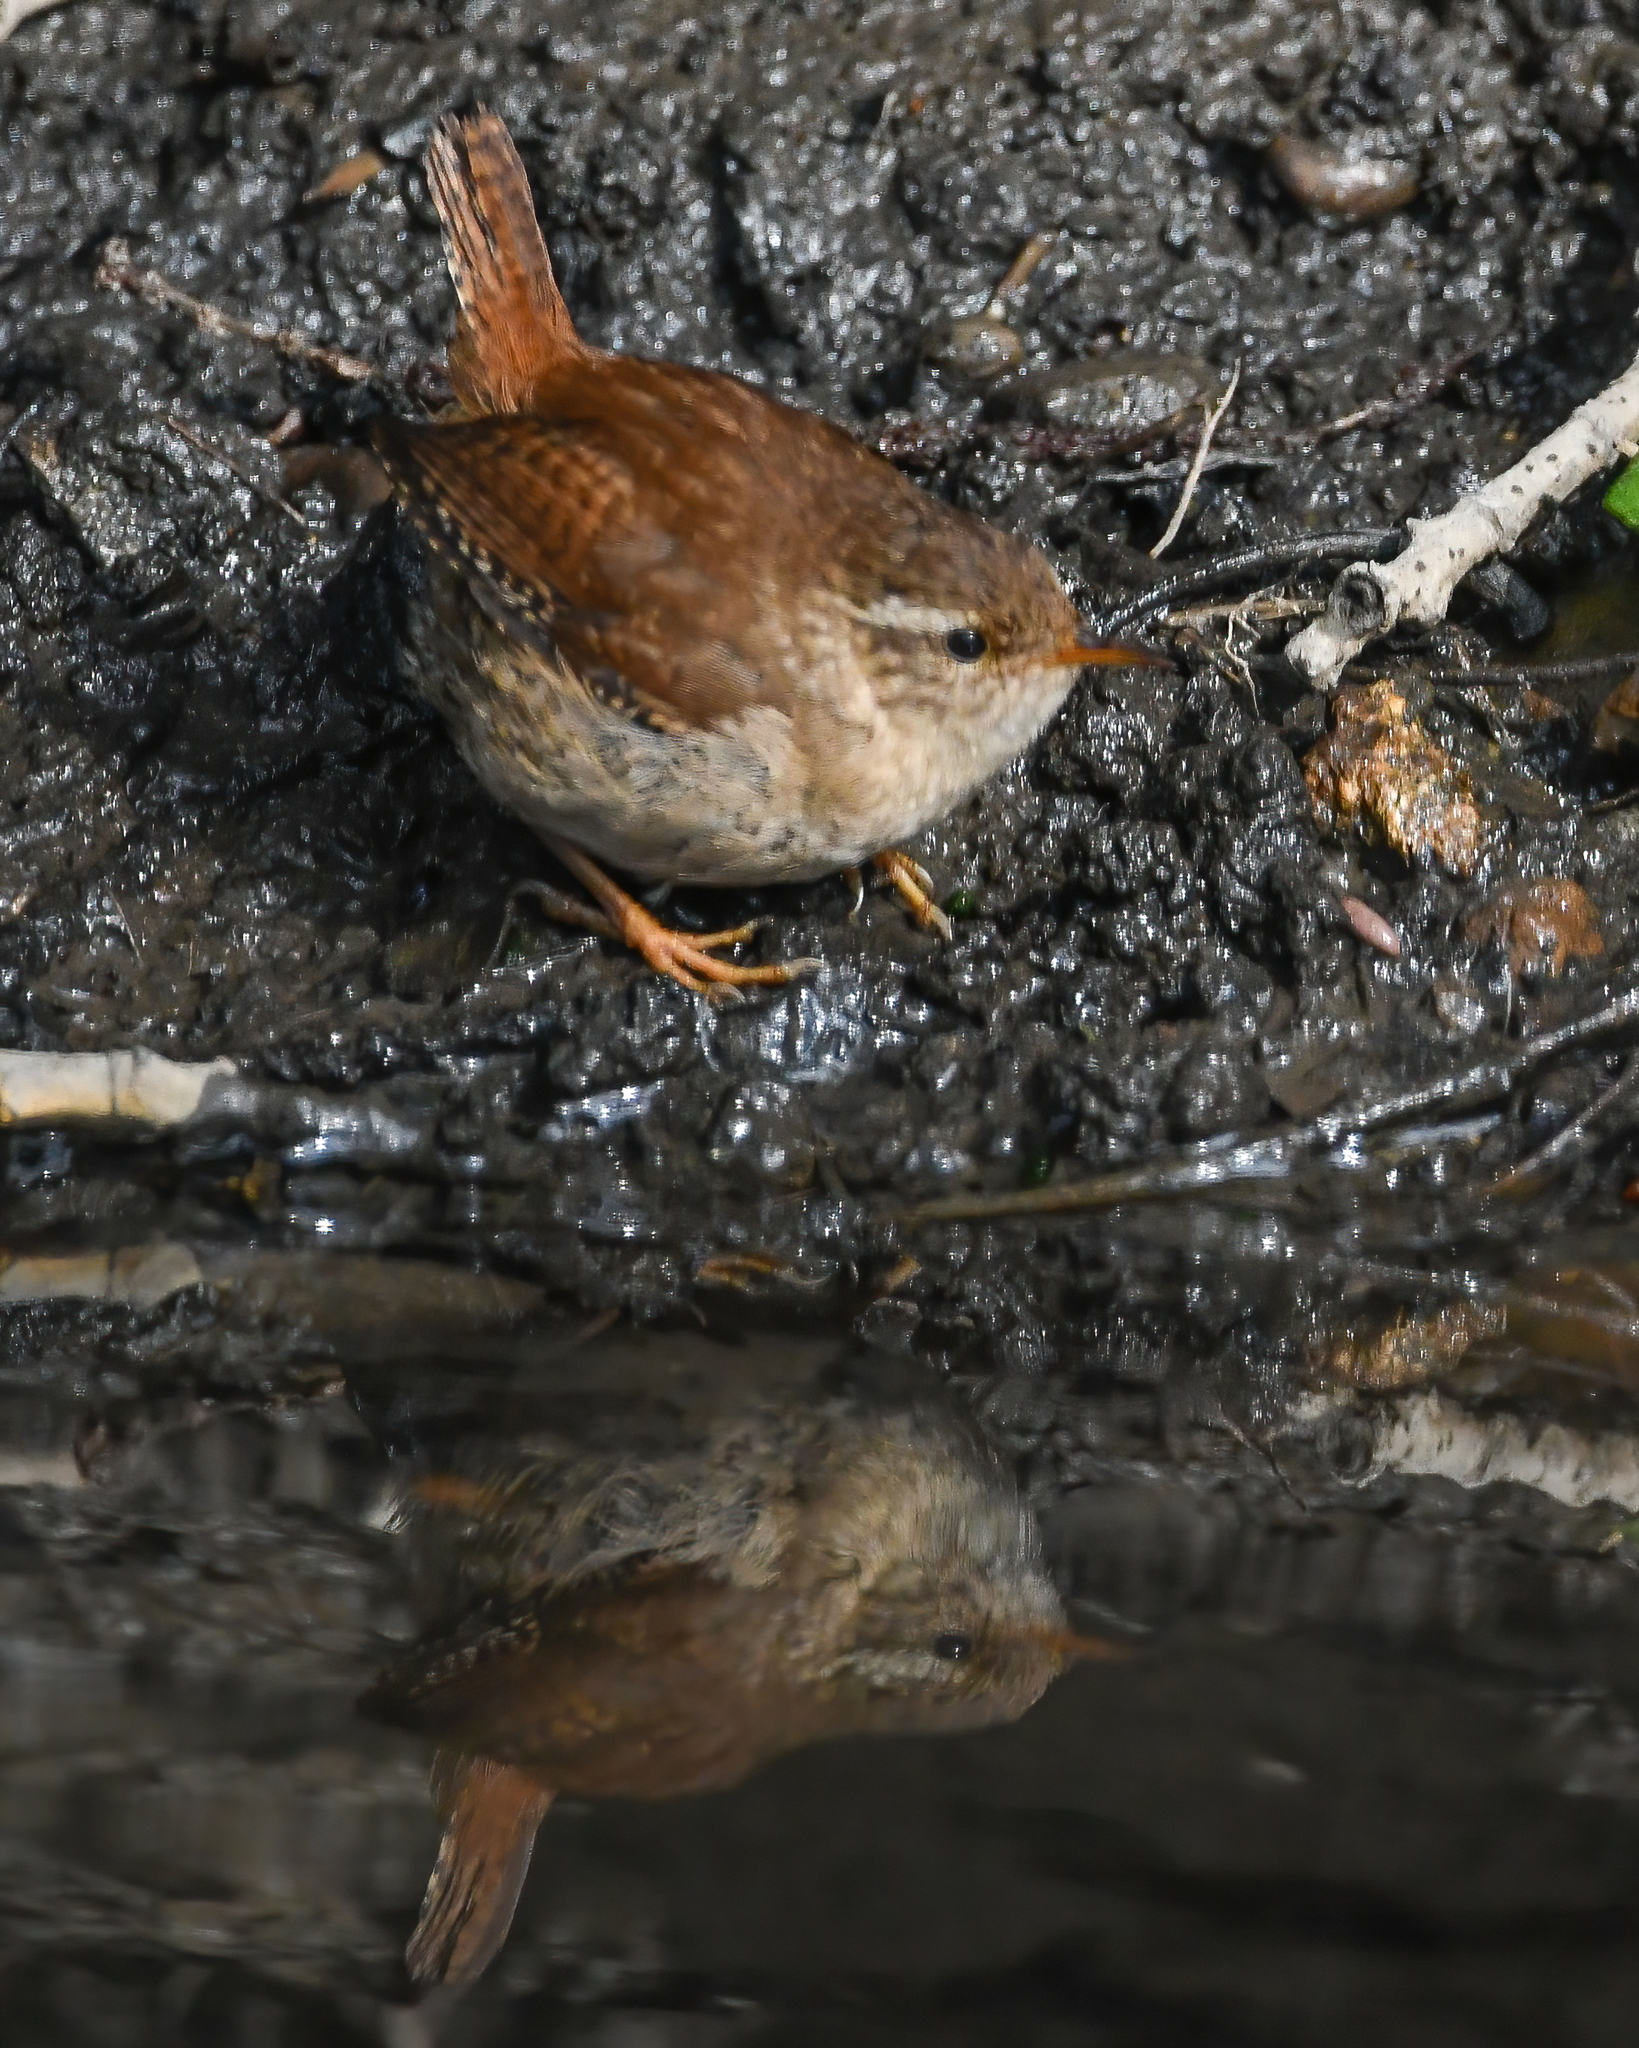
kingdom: Animalia
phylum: Chordata
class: Aves
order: Passeriformes
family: Troglodytidae
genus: Troglodytes
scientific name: Troglodytes troglodytes
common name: Eurasian wren
